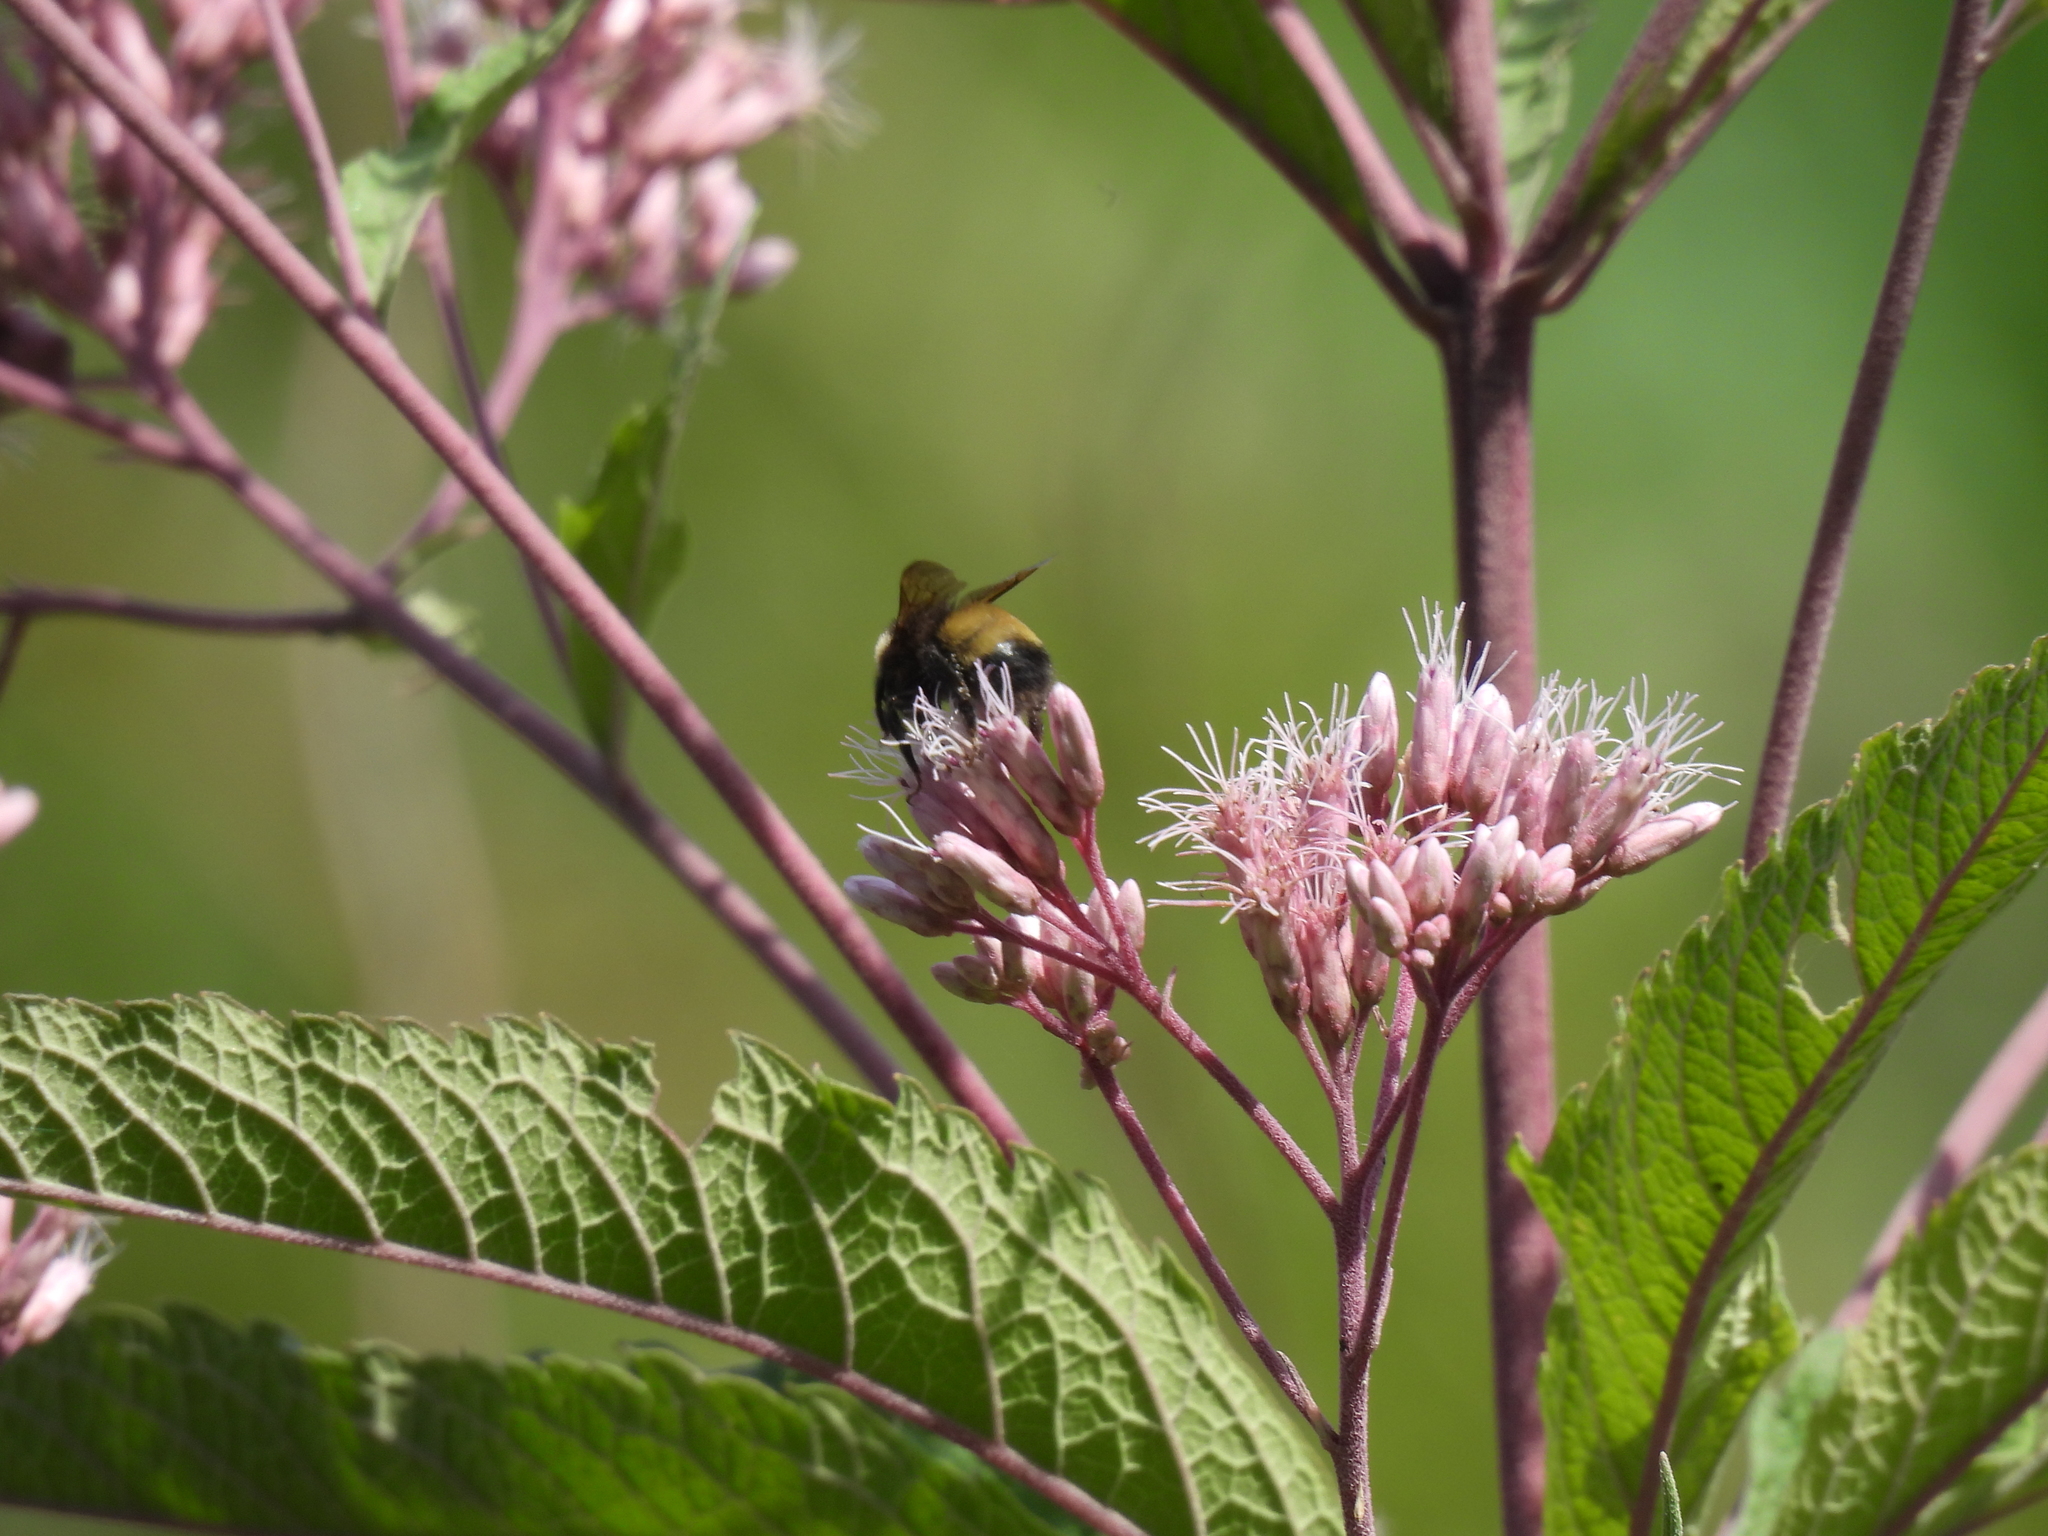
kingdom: Animalia
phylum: Arthropoda
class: Insecta
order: Hymenoptera
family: Apidae
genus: Bombus
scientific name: Bombus terricola
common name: Yellow-banded bumble bee
